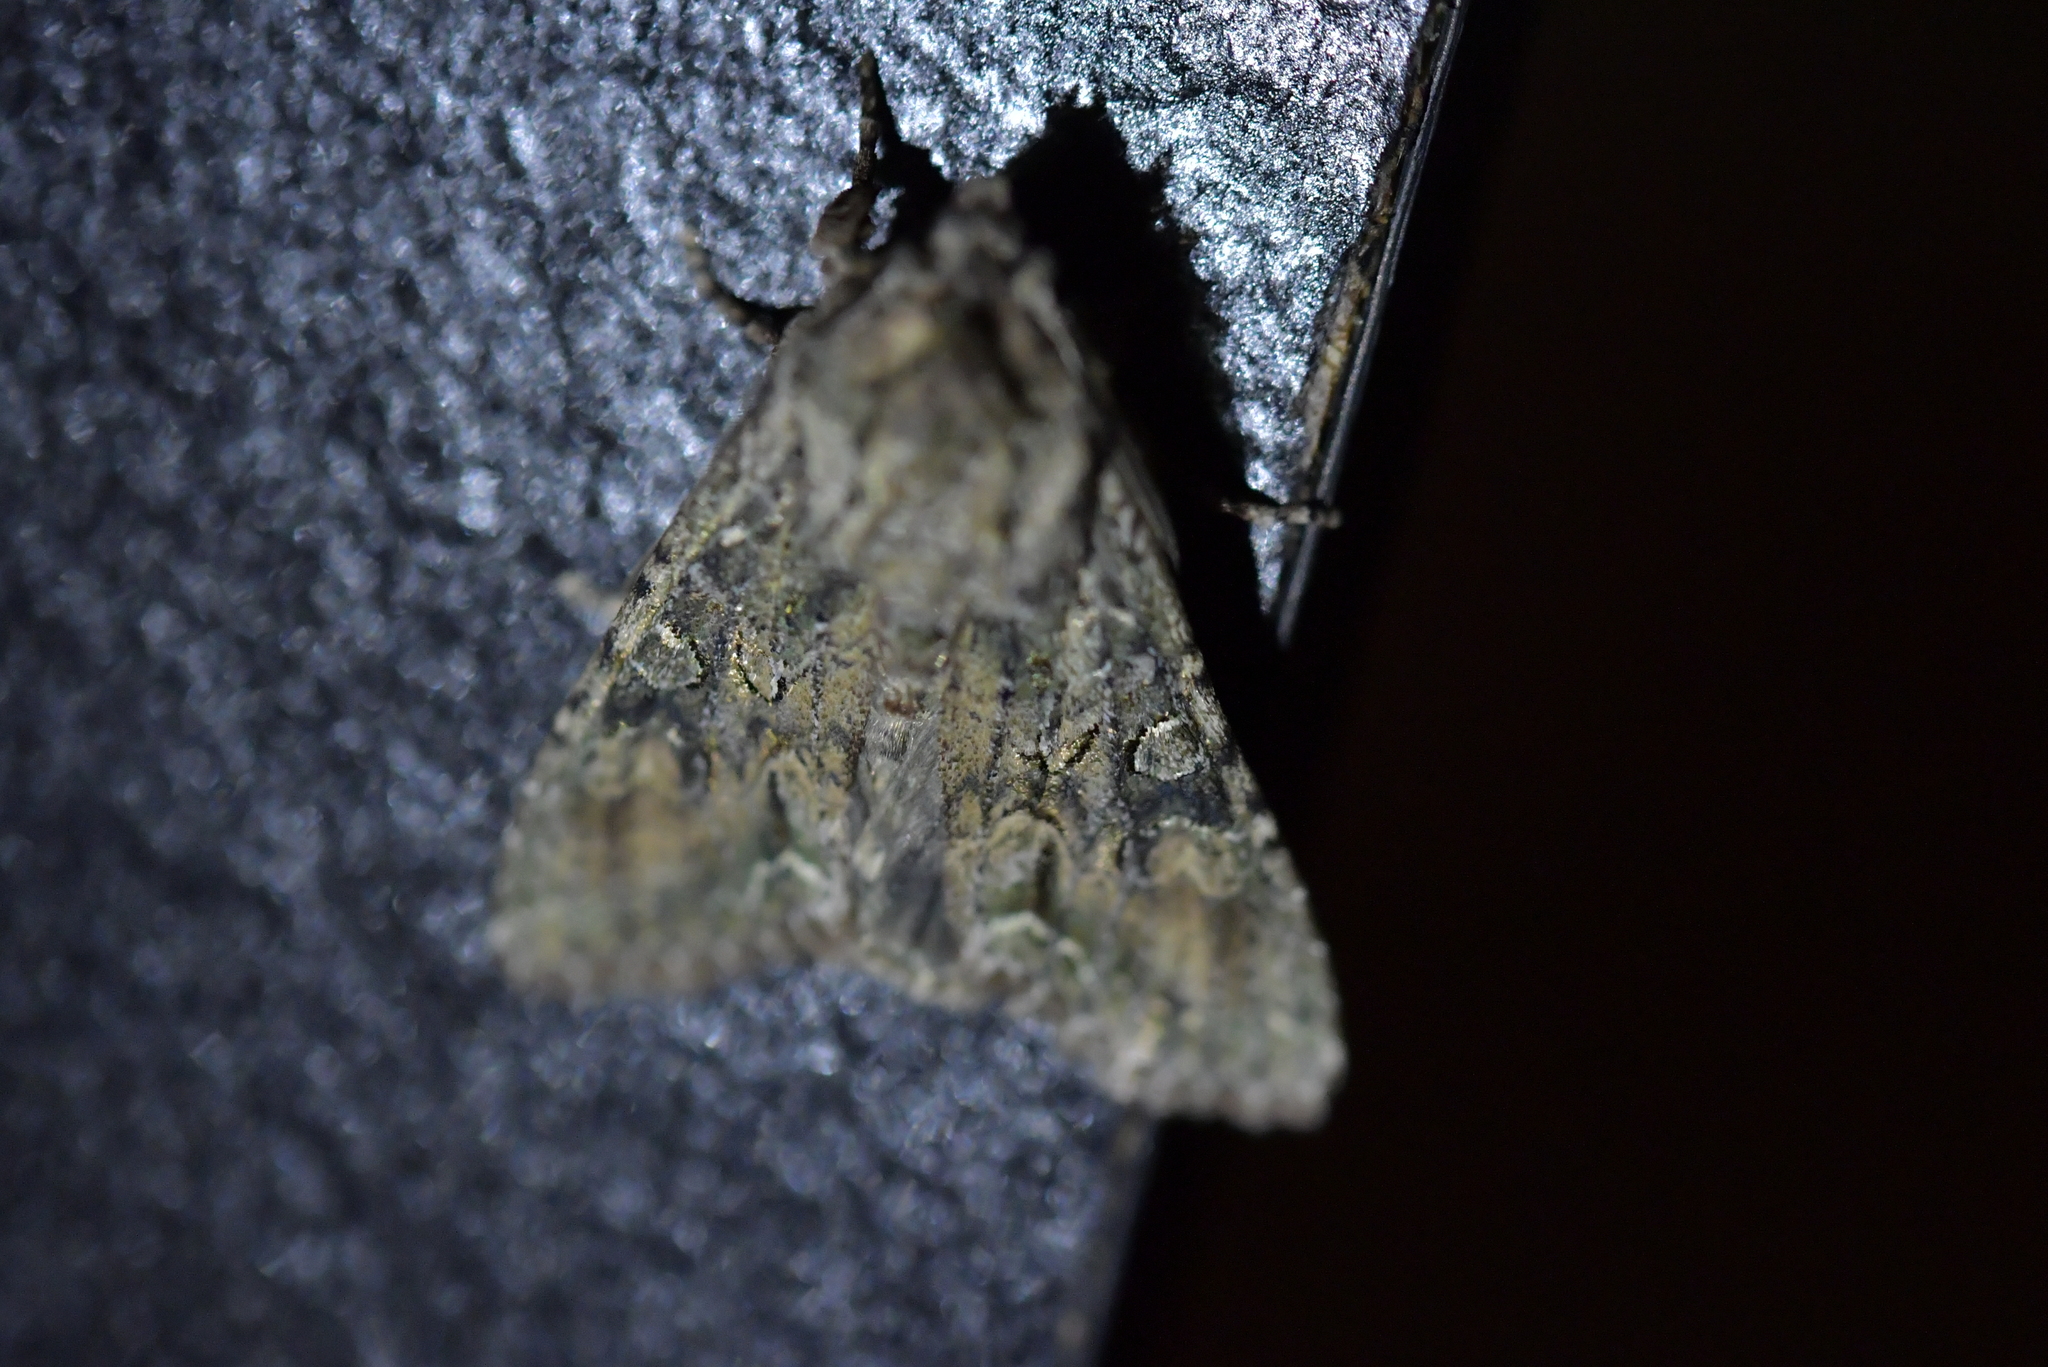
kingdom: Animalia
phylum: Arthropoda
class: Insecta
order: Lepidoptera
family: Noctuidae
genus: Ichneutica
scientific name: Ichneutica mutans
